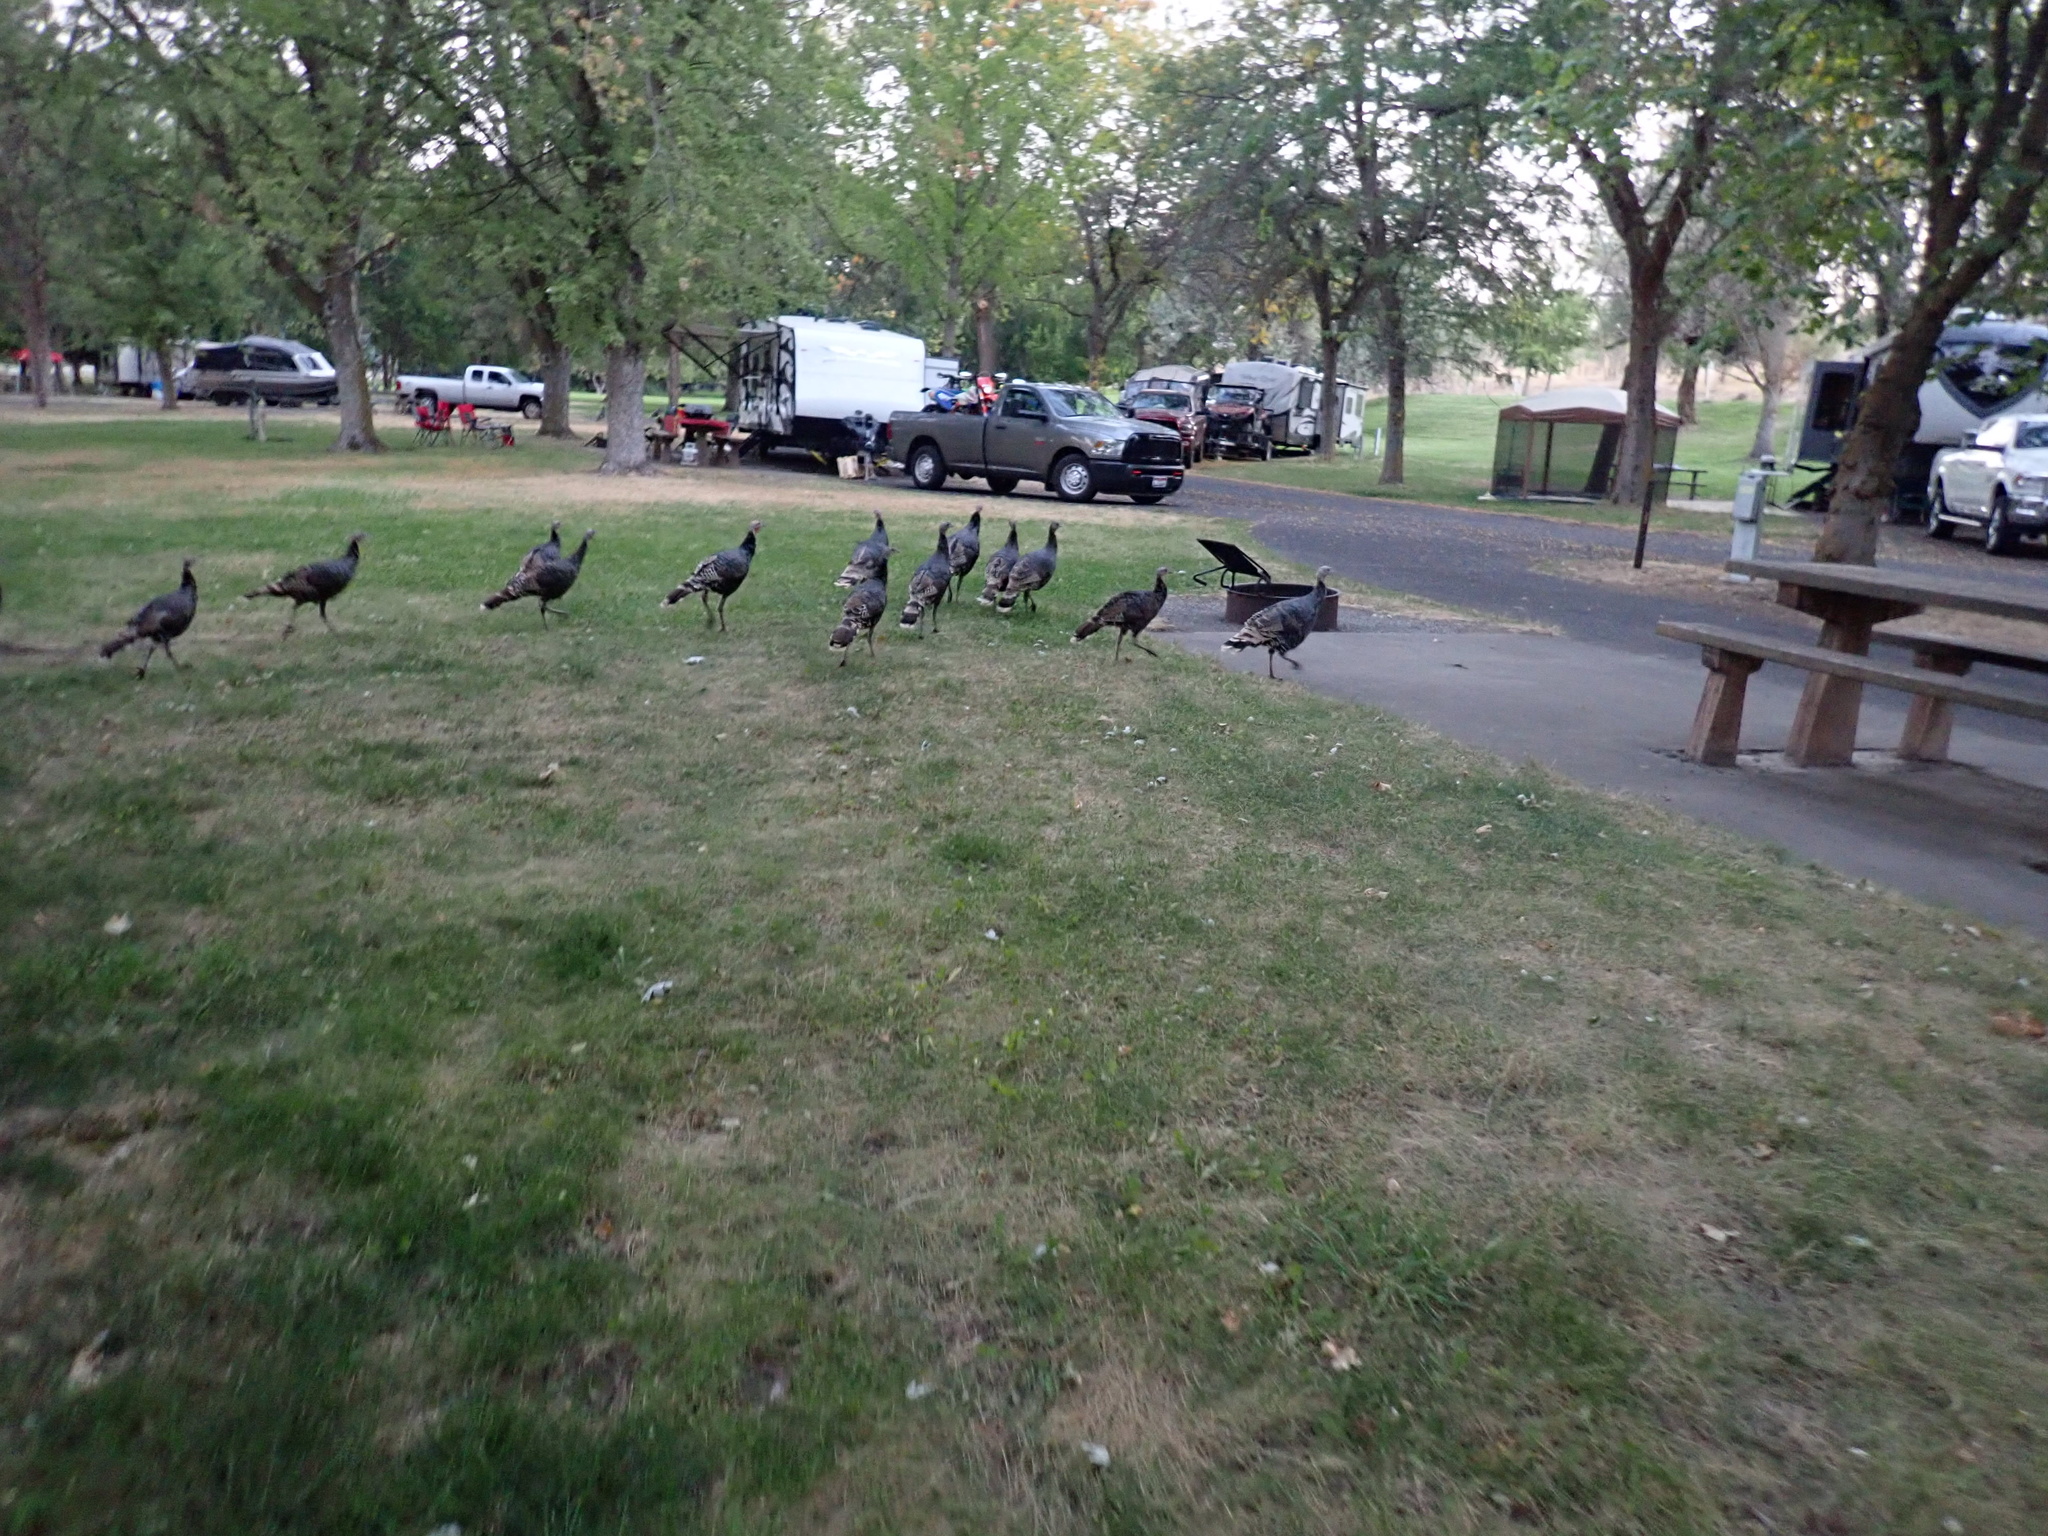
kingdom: Animalia
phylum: Chordata
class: Aves
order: Galliformes
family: Phasianidae
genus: Meleagris
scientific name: Meleagris gallopavo
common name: Wild turkey
